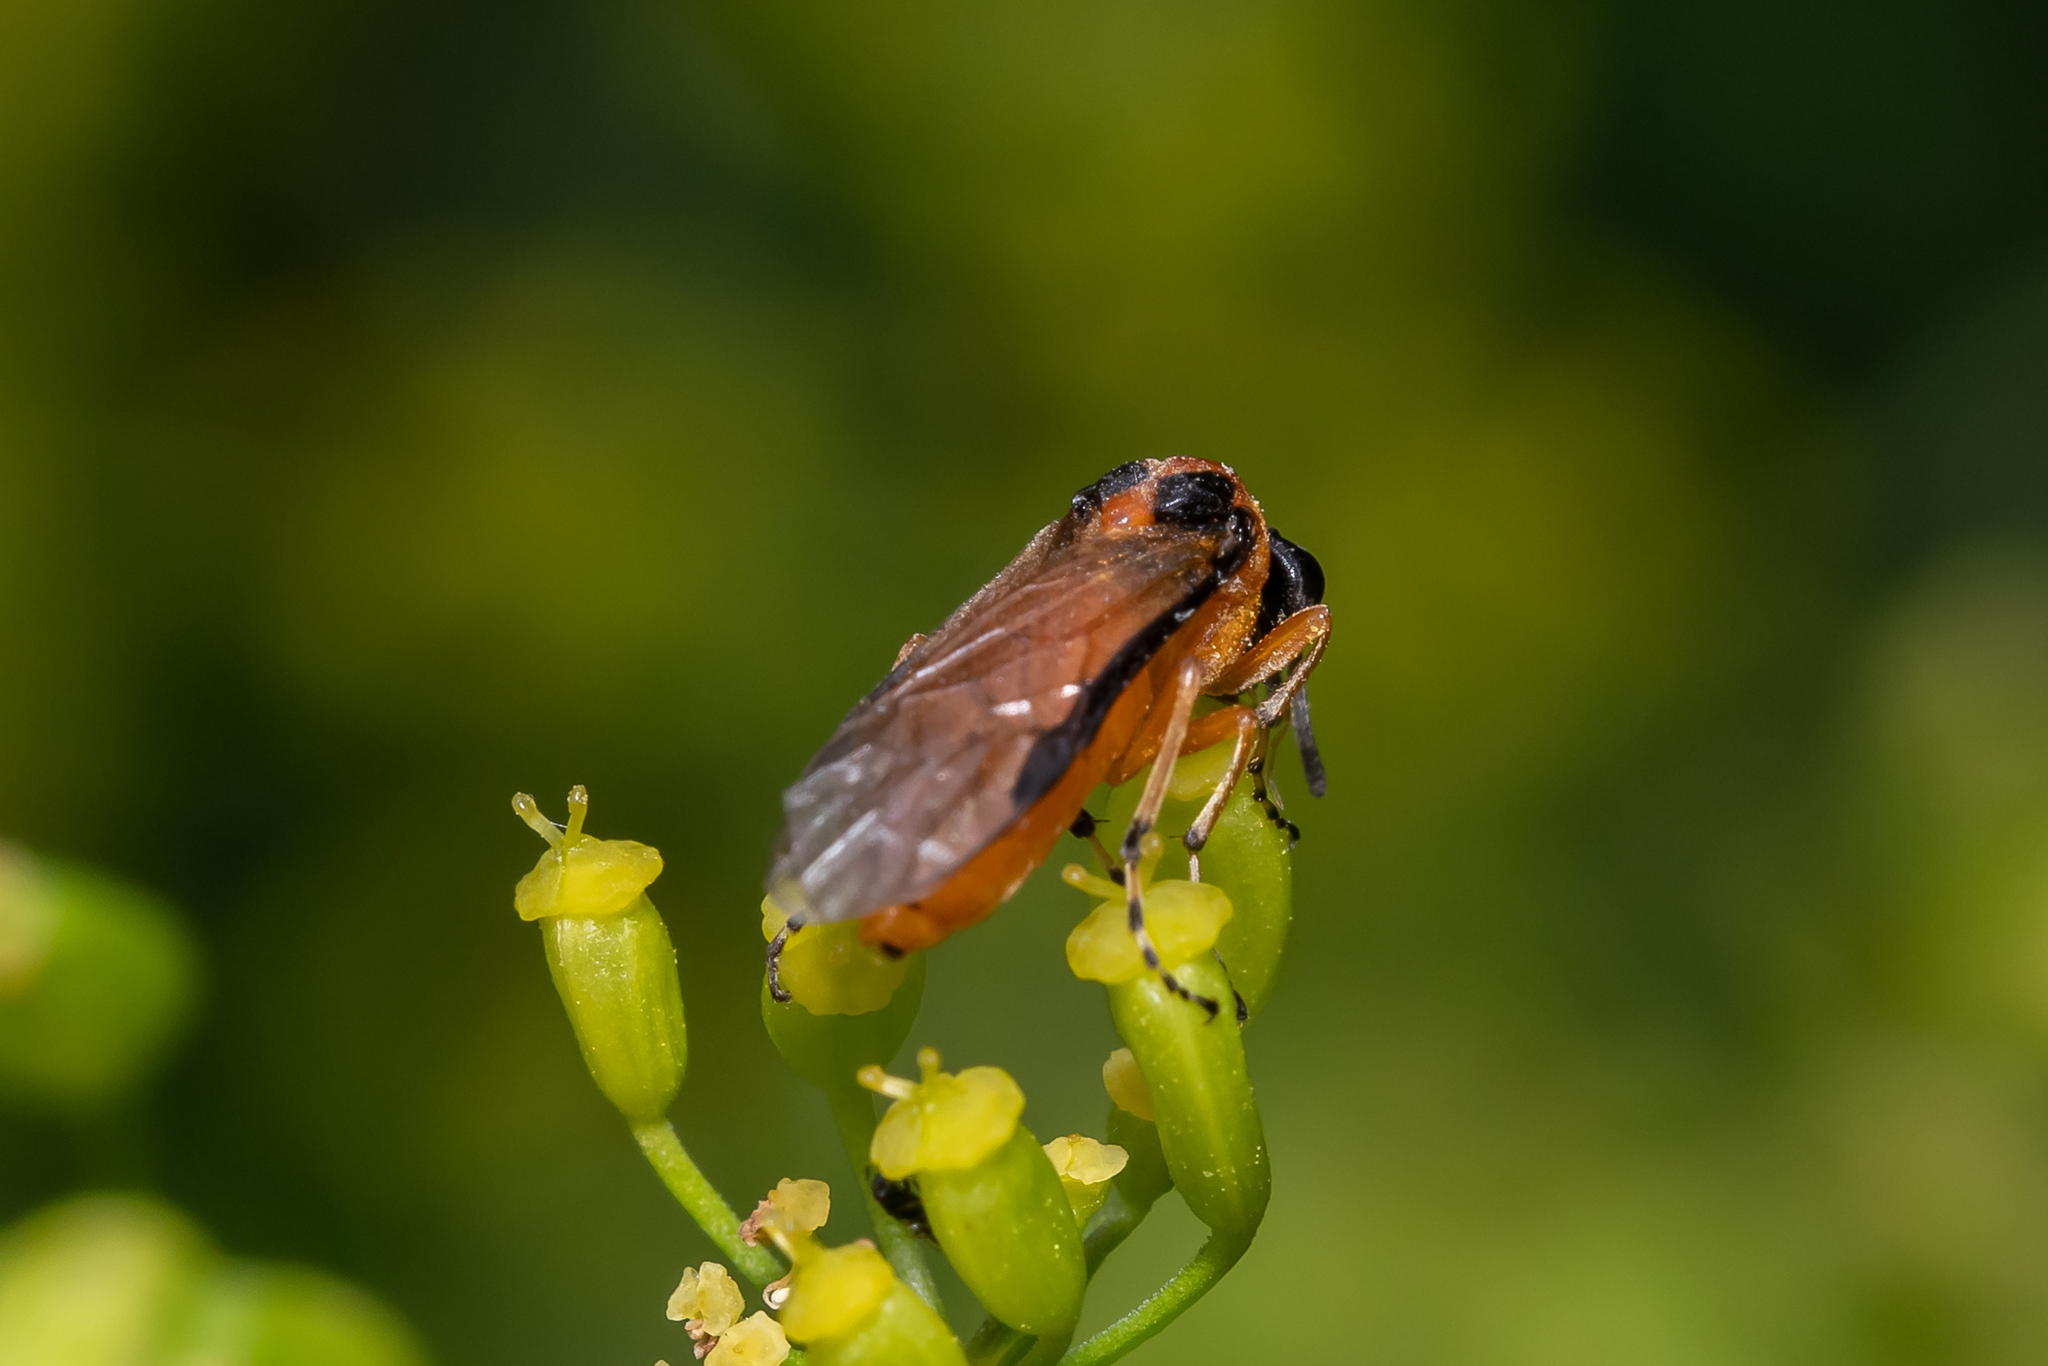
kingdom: Animalia
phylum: Arthropoda
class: Insecta
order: Hymenoptera
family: Tenthredinidae
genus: Athalia
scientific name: Athalia rosae
